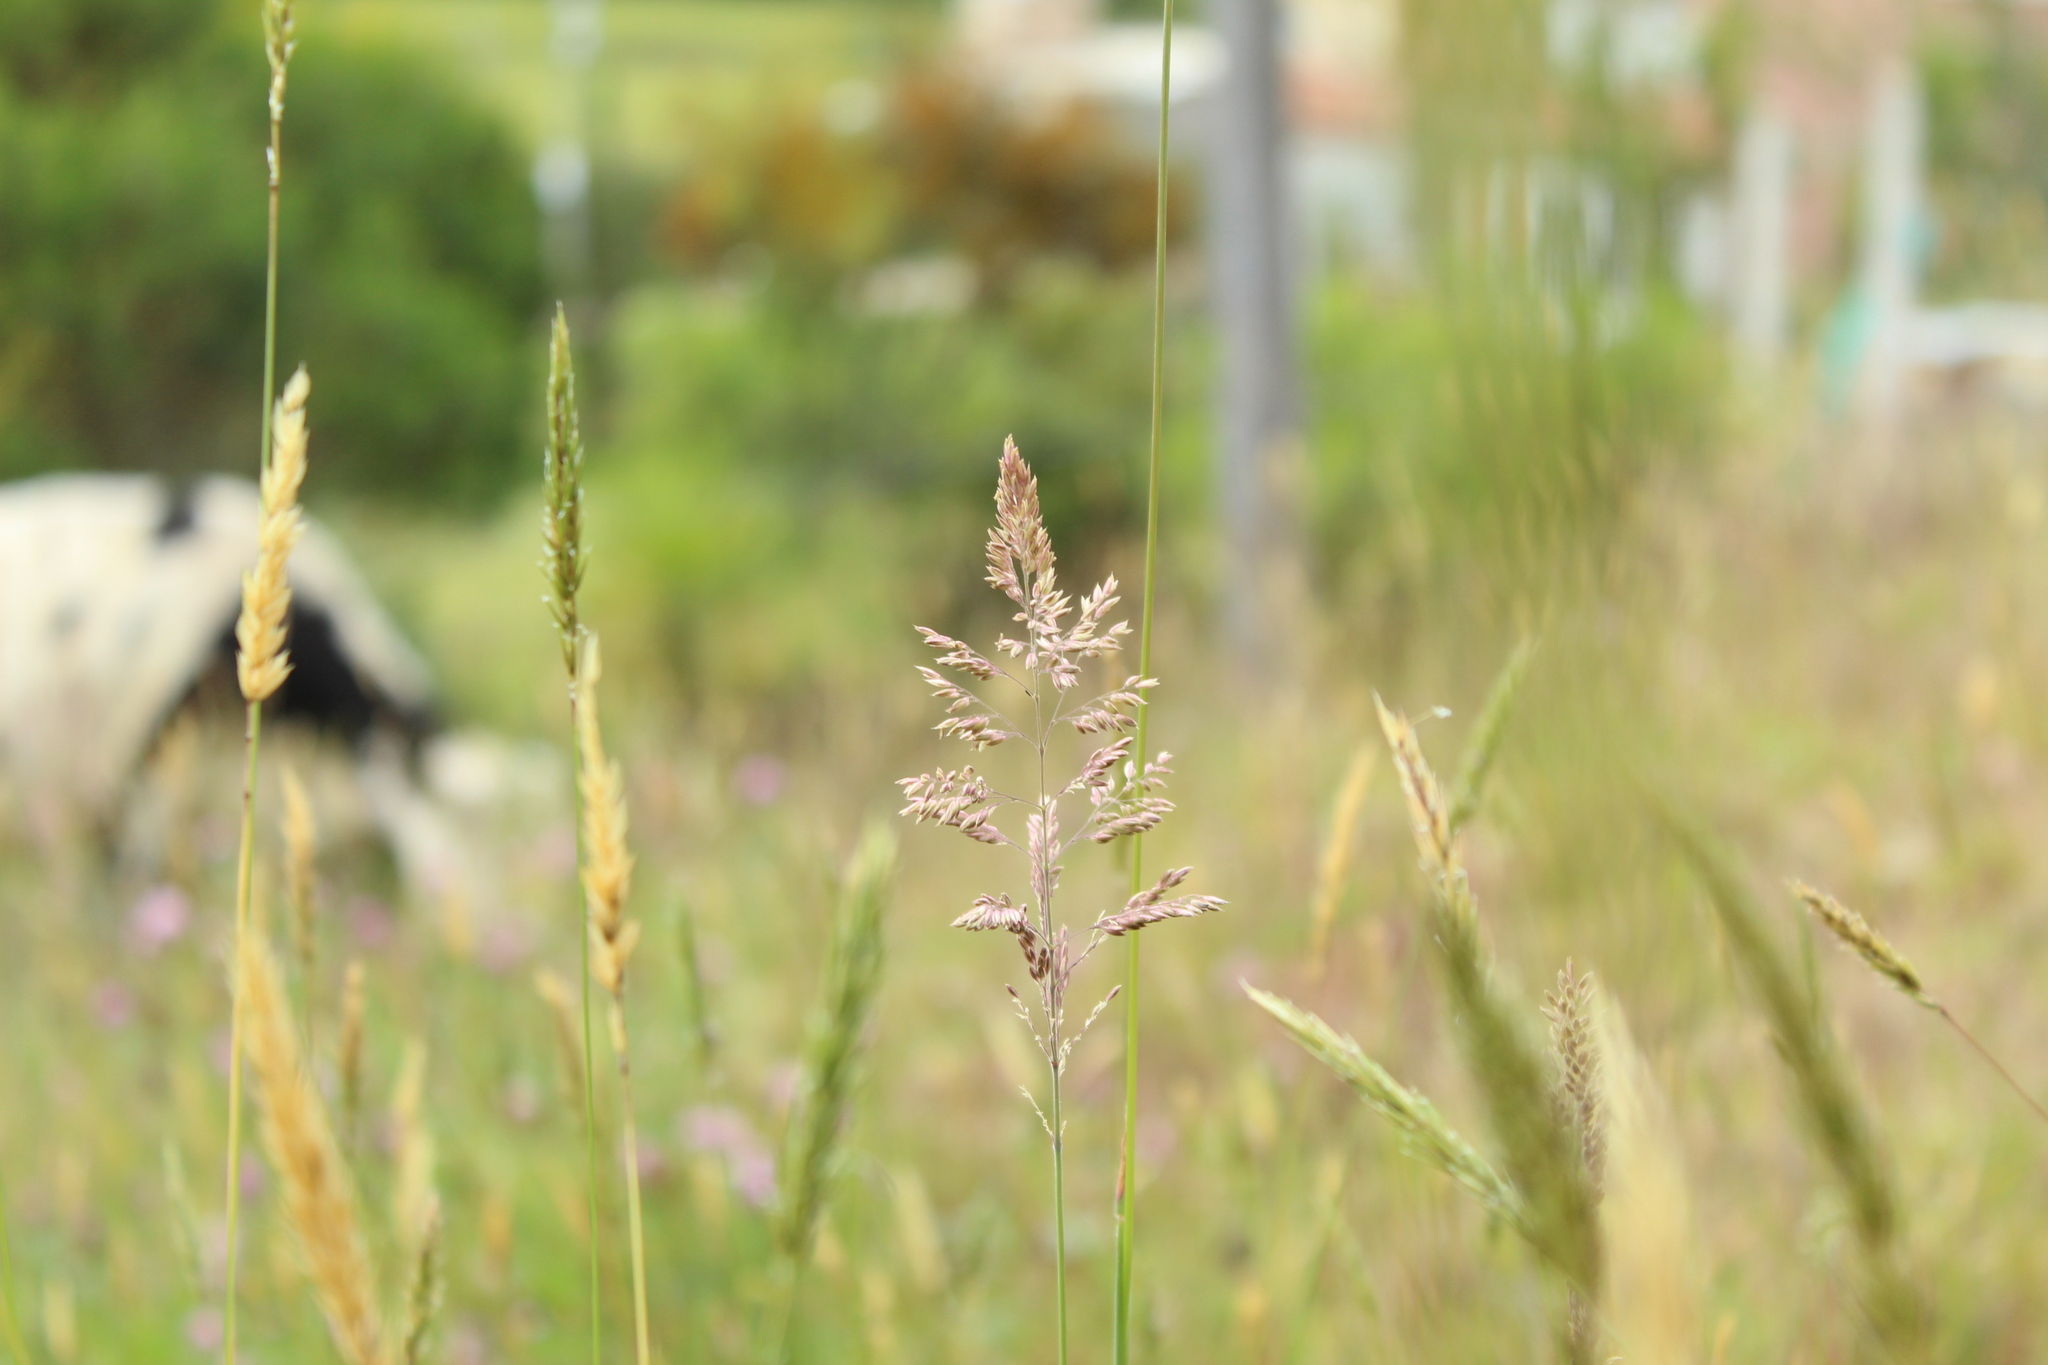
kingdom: Plantae
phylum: Tracheophyta
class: Liliopsida
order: Poales
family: Poaceae
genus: Holcus
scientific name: Holcus lanatus
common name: Yorkshire-fog
